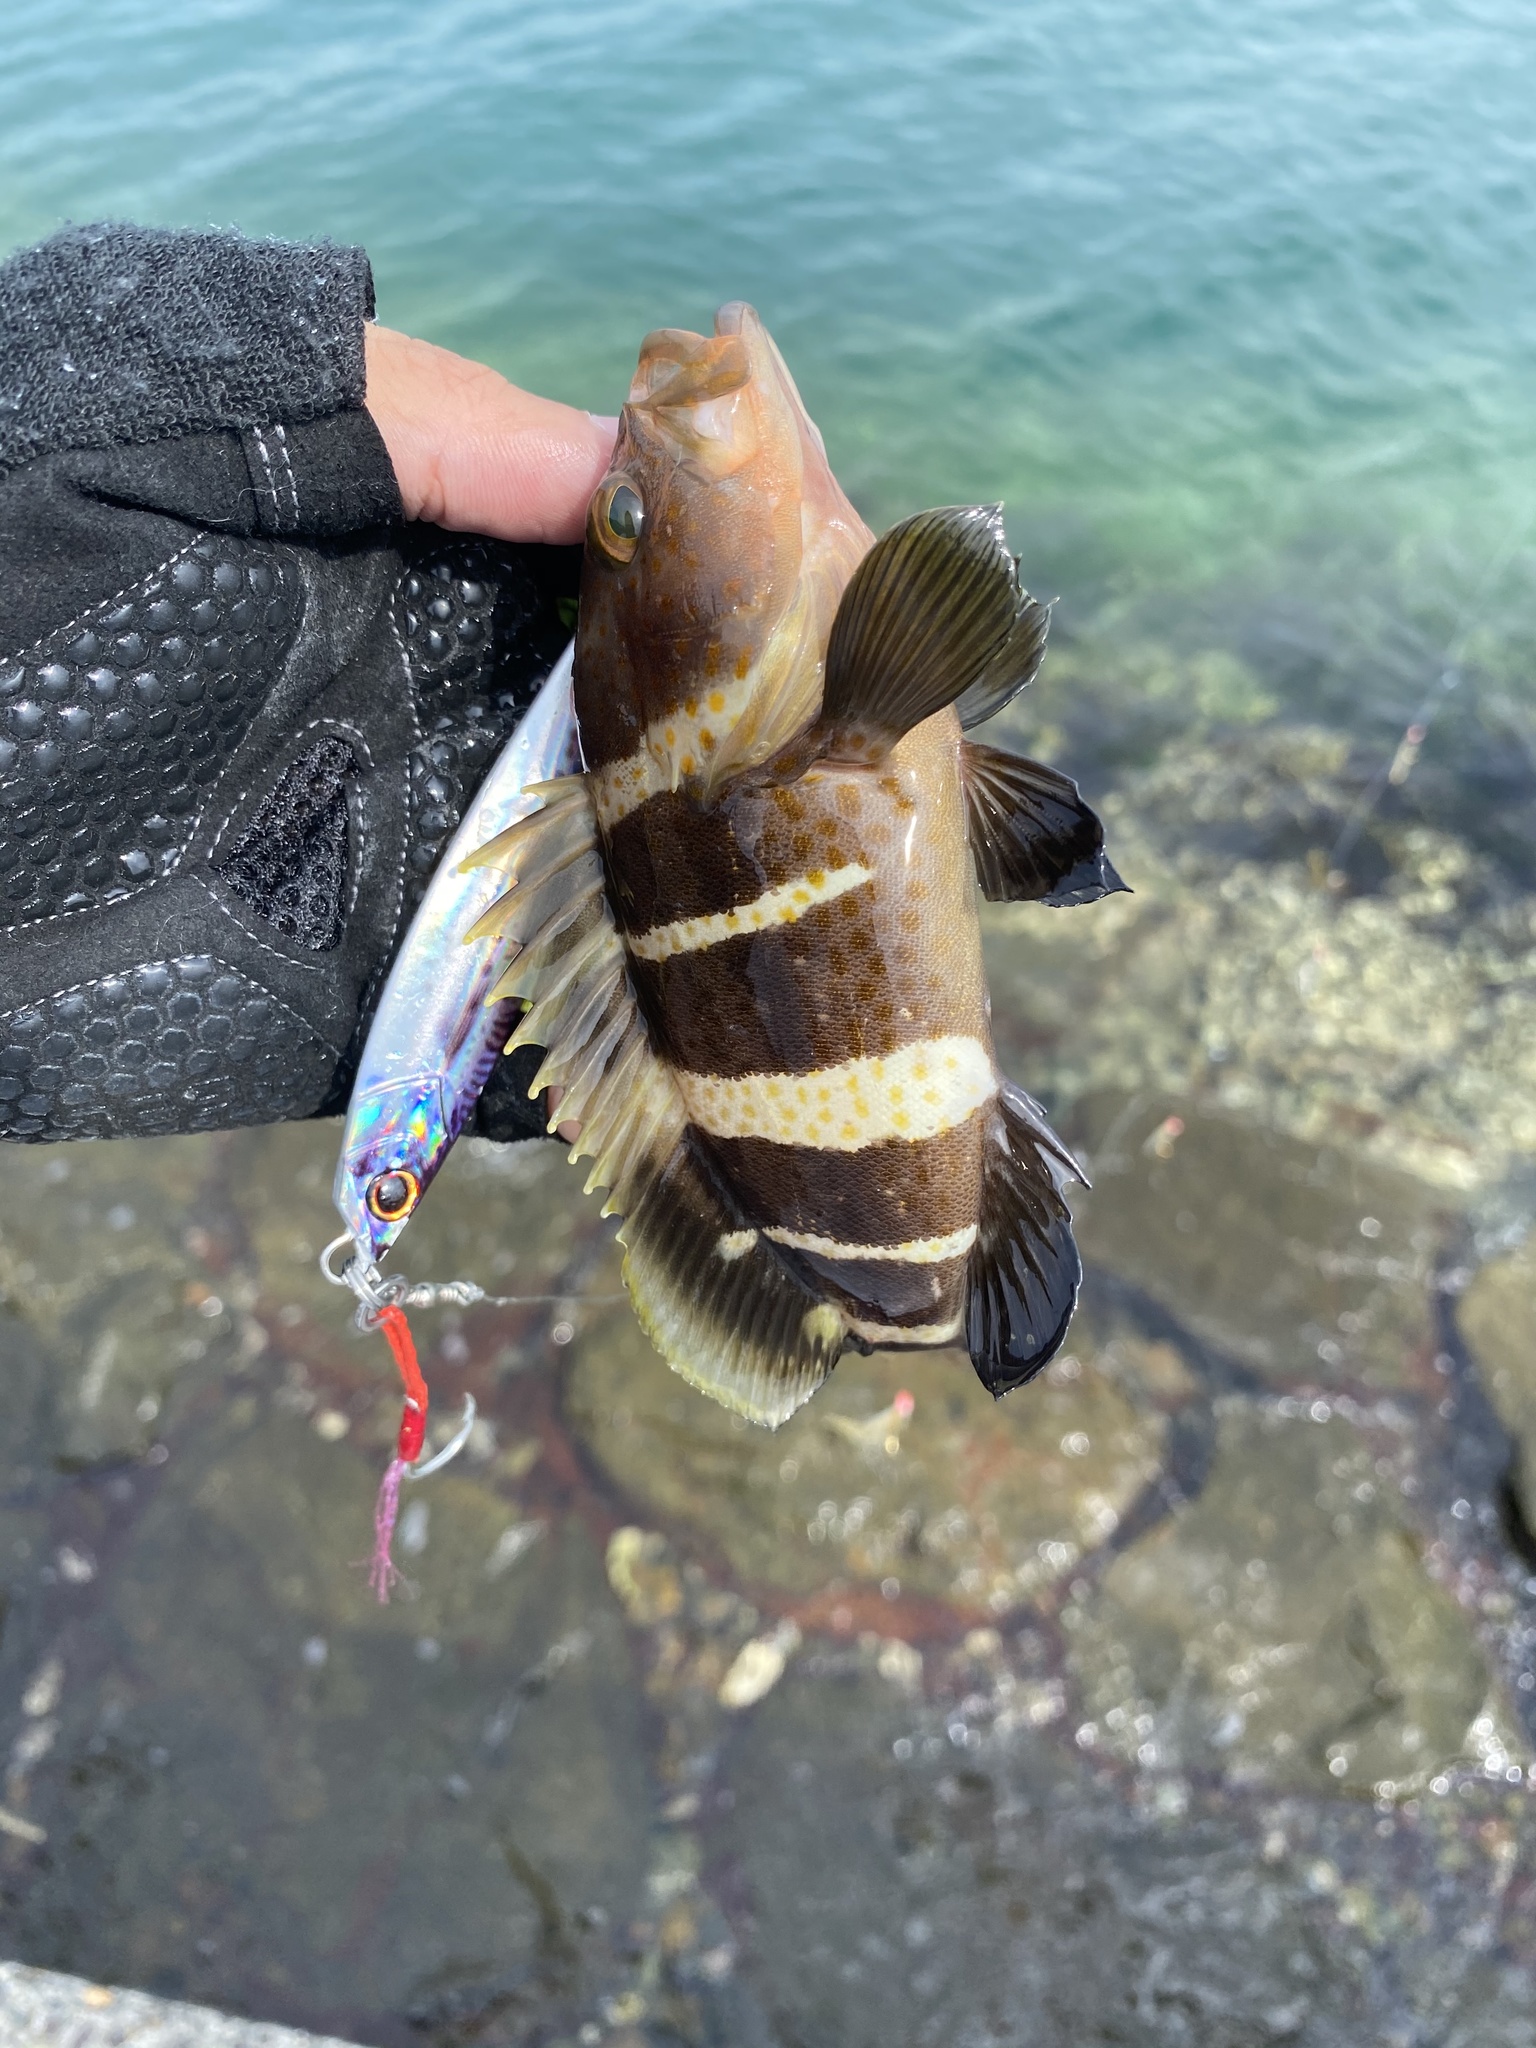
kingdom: Animalia
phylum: Chordata
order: Perciformes
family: Serranidae
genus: Epinephelus
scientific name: Epinephelus awoara
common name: Yellow grouper
